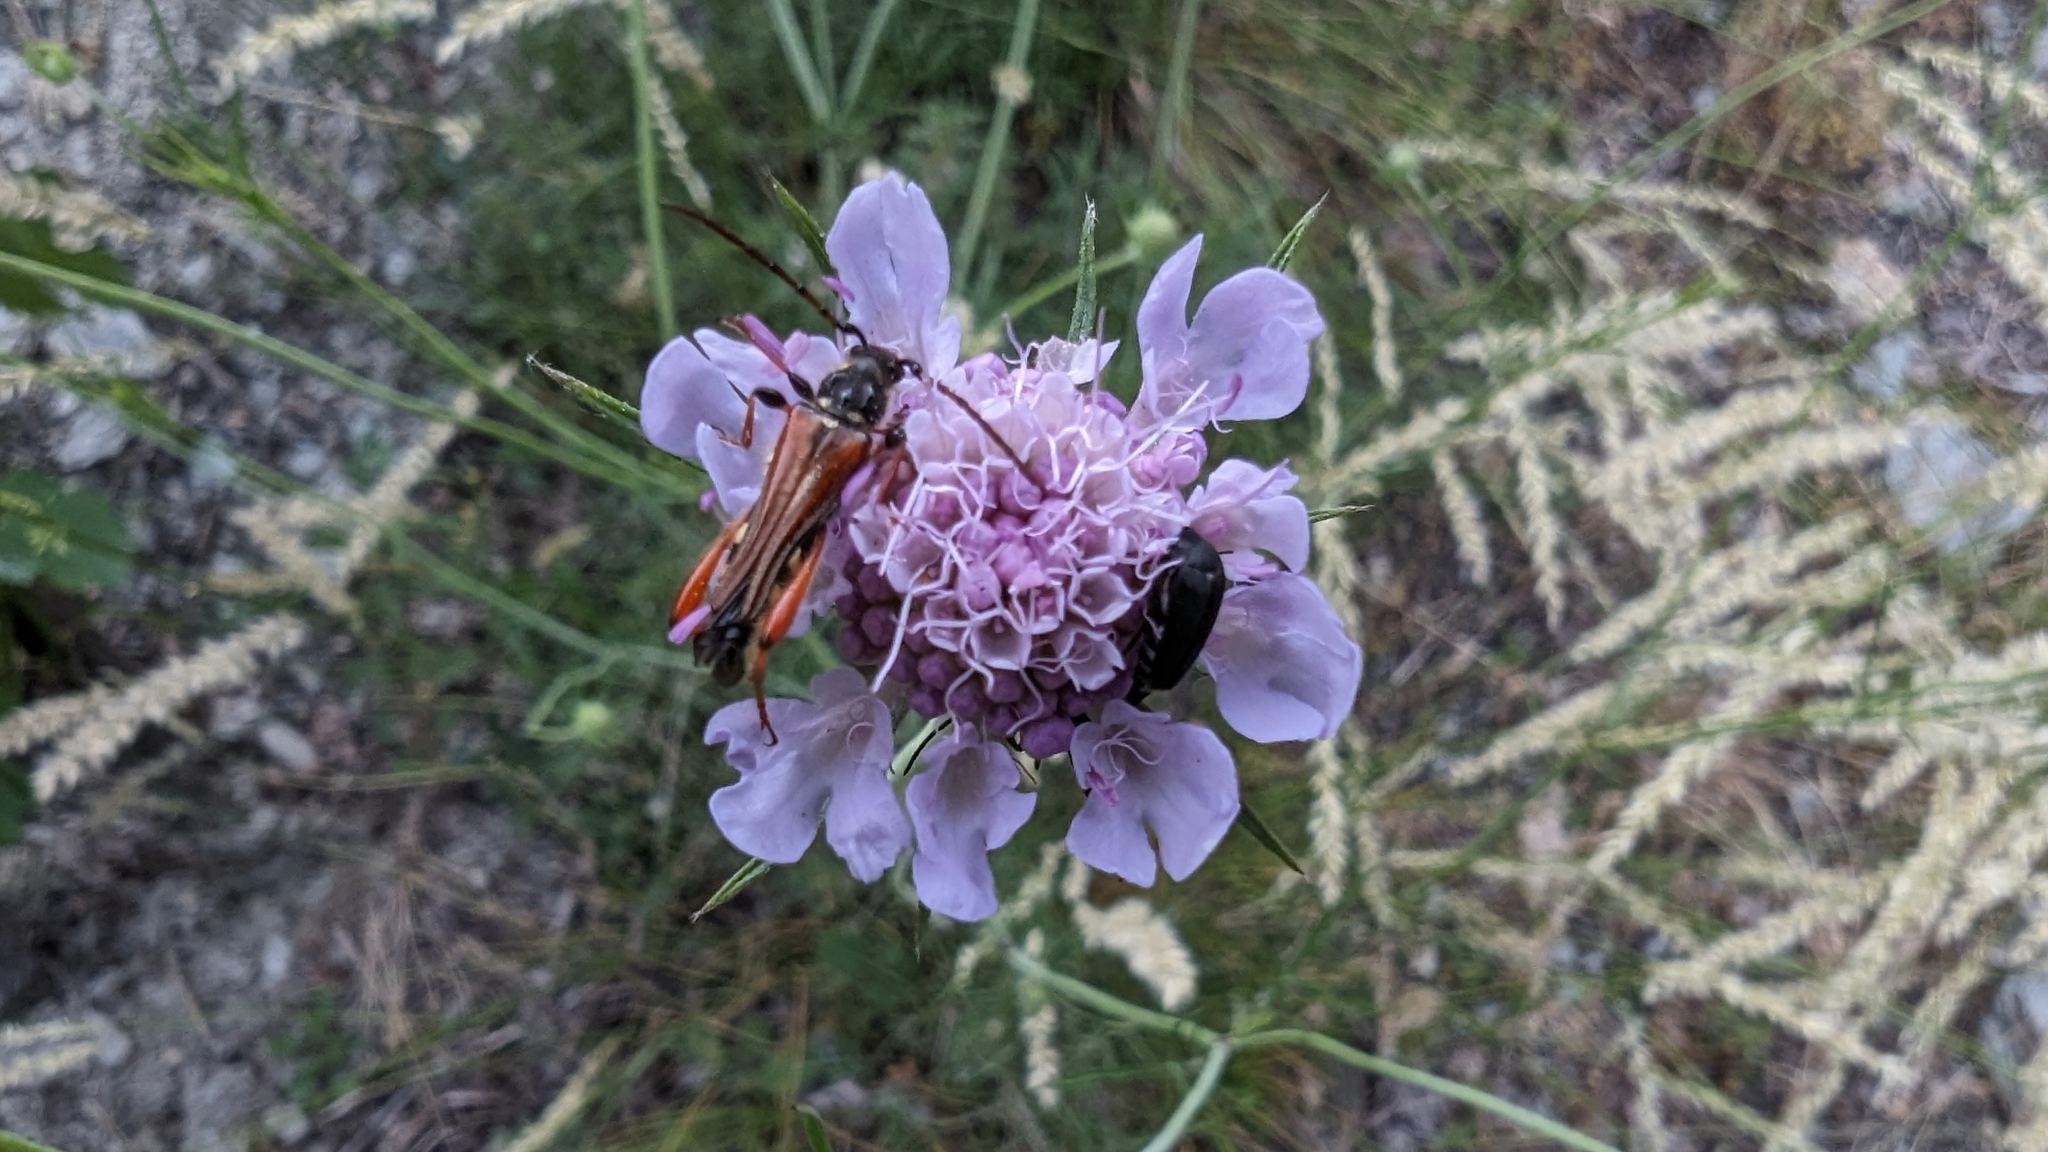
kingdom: Animalia
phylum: Arthropoda
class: Insecta
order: Coleoptera
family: Cerambycidae
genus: Stenopterus
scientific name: Stenopterus rufus
